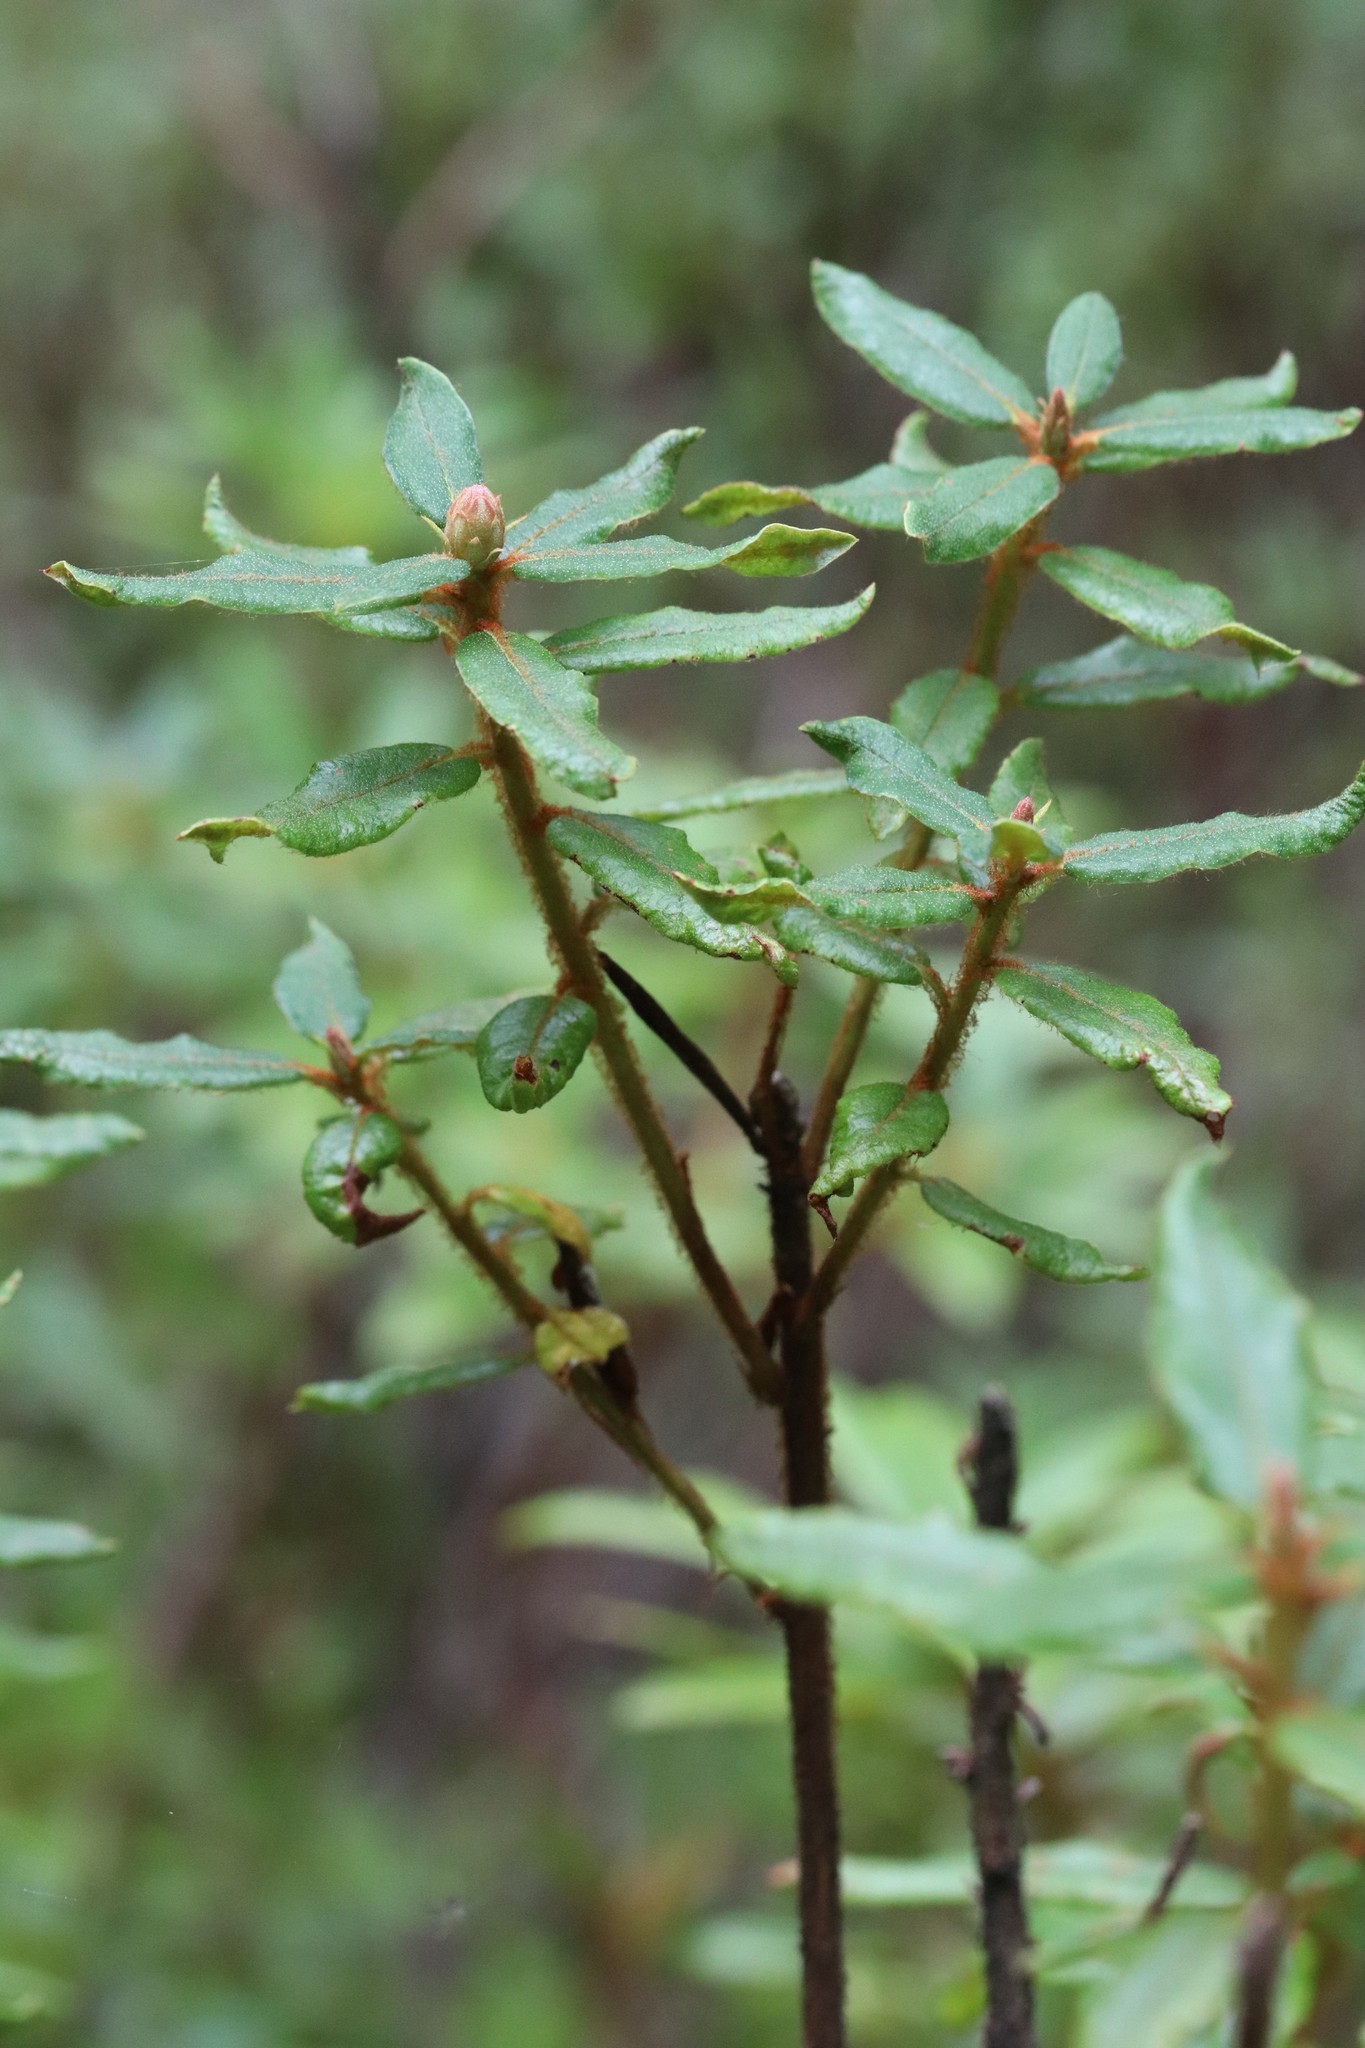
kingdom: Plantae
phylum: Tracheophyta
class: Magnoliopsida
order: Ericales
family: Ericaceae
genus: Rhododendron
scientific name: Rhododendron tolmachevii
